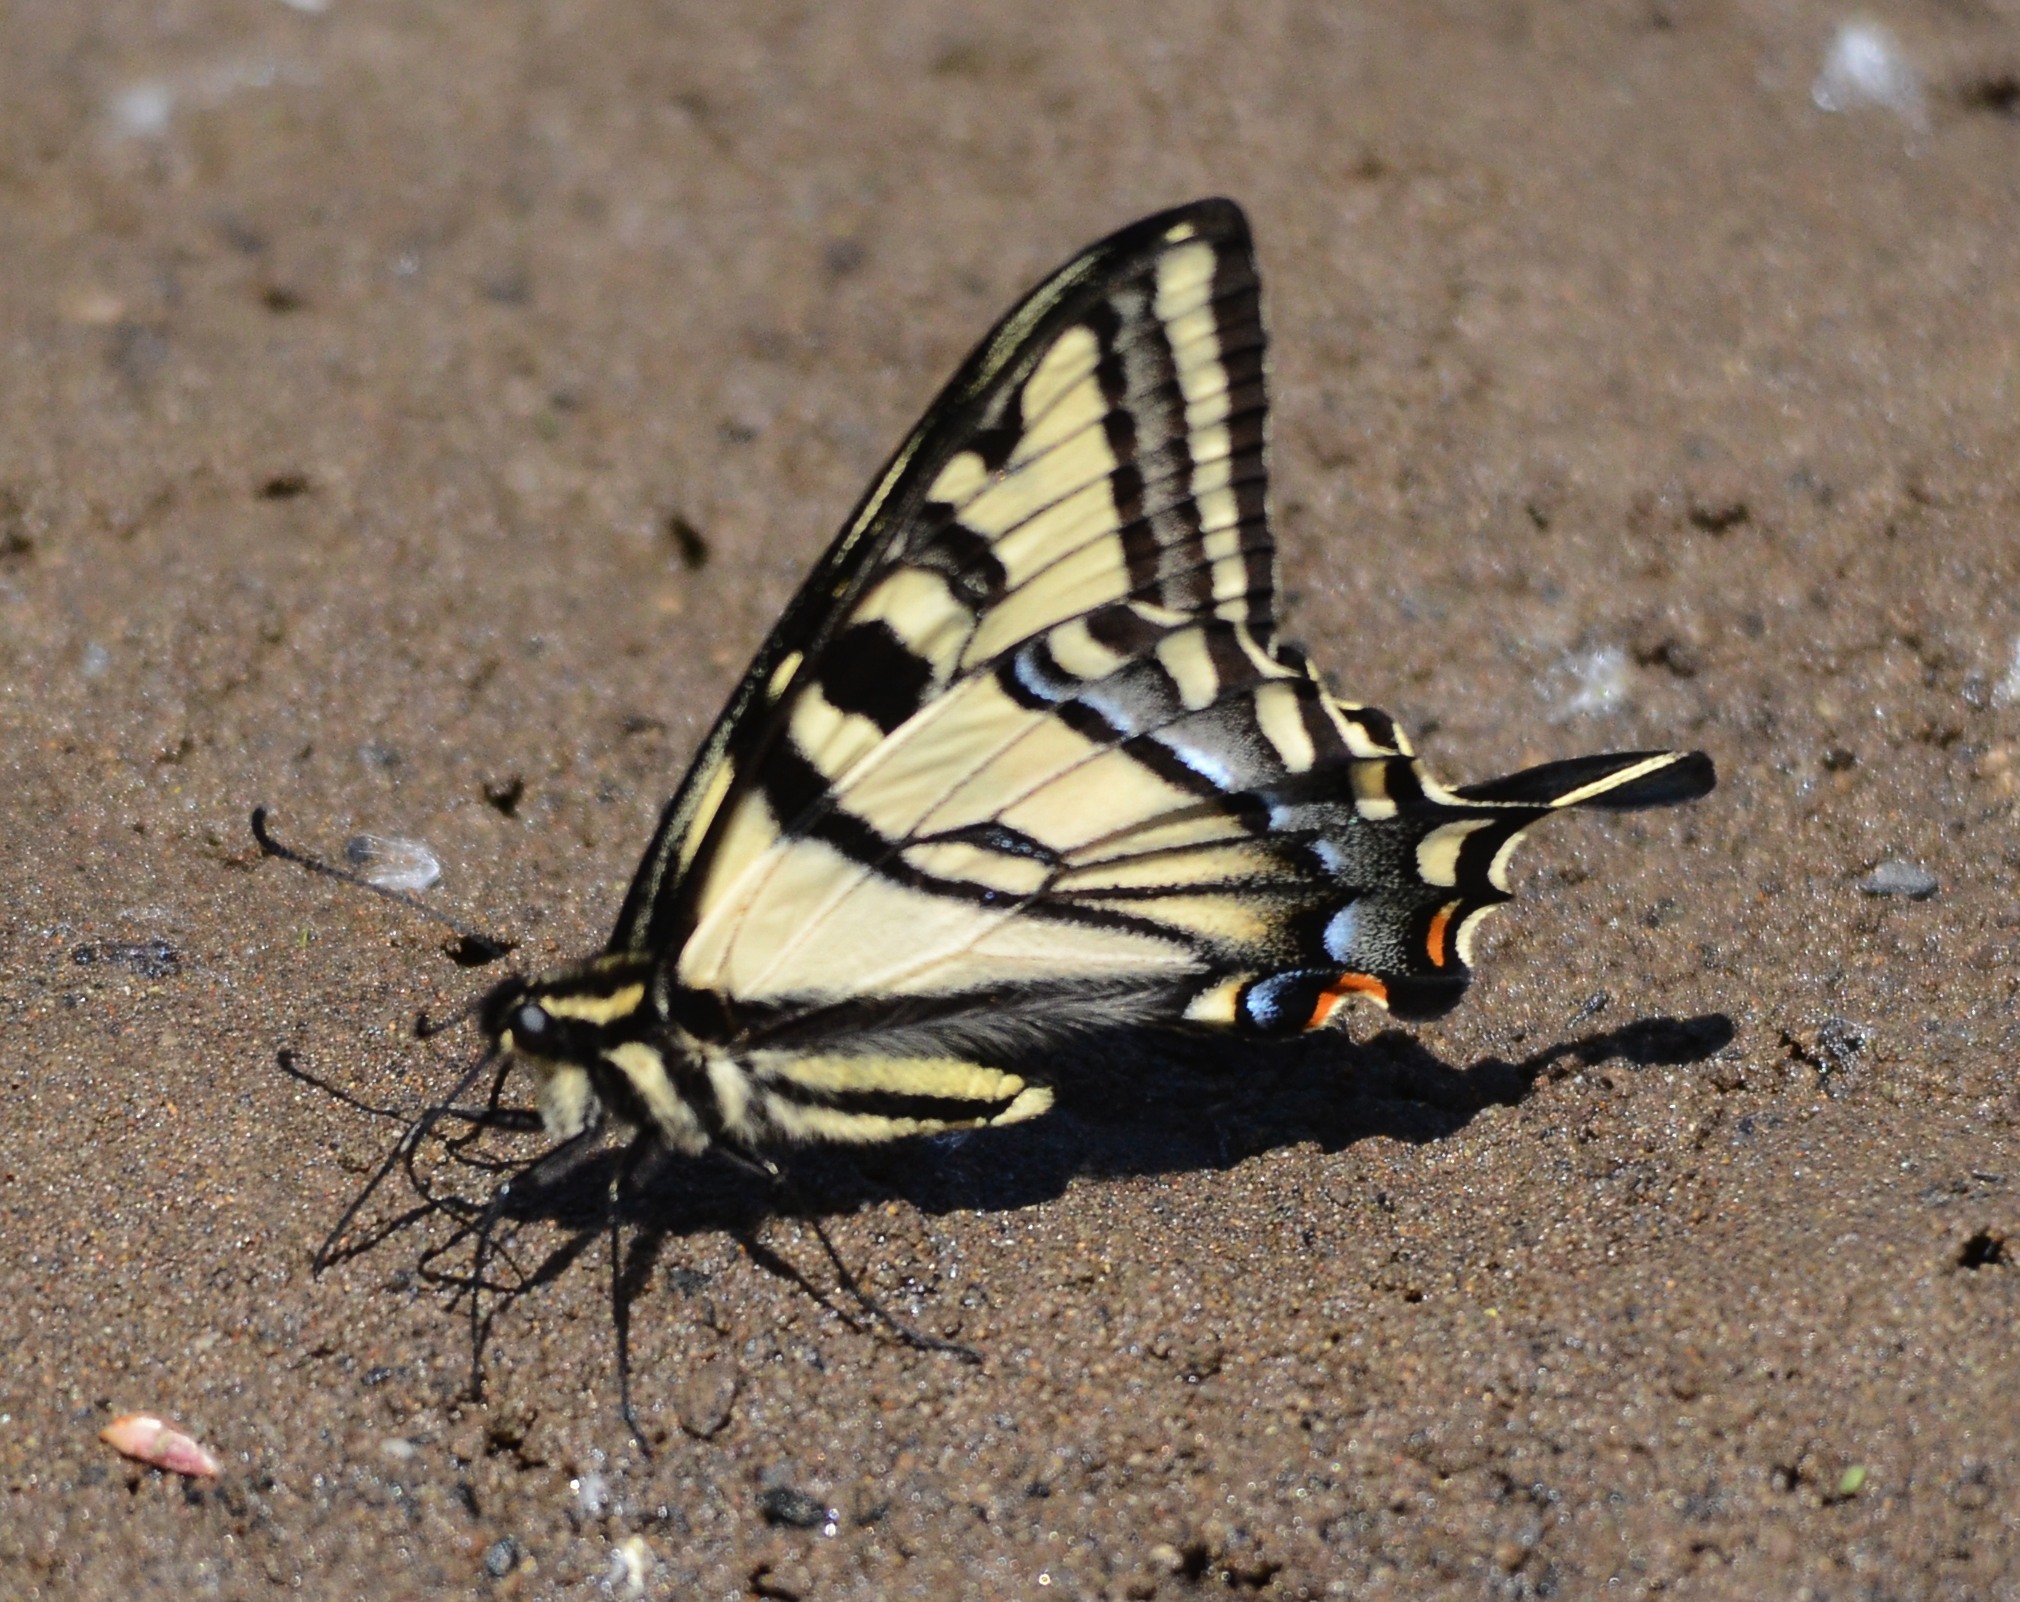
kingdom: Animalia
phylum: Arthropoda
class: Insecta
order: Lepidoptera
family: Papilionidae
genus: Papilio
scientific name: Papilio rutulus
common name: Western tiger swallowtail
